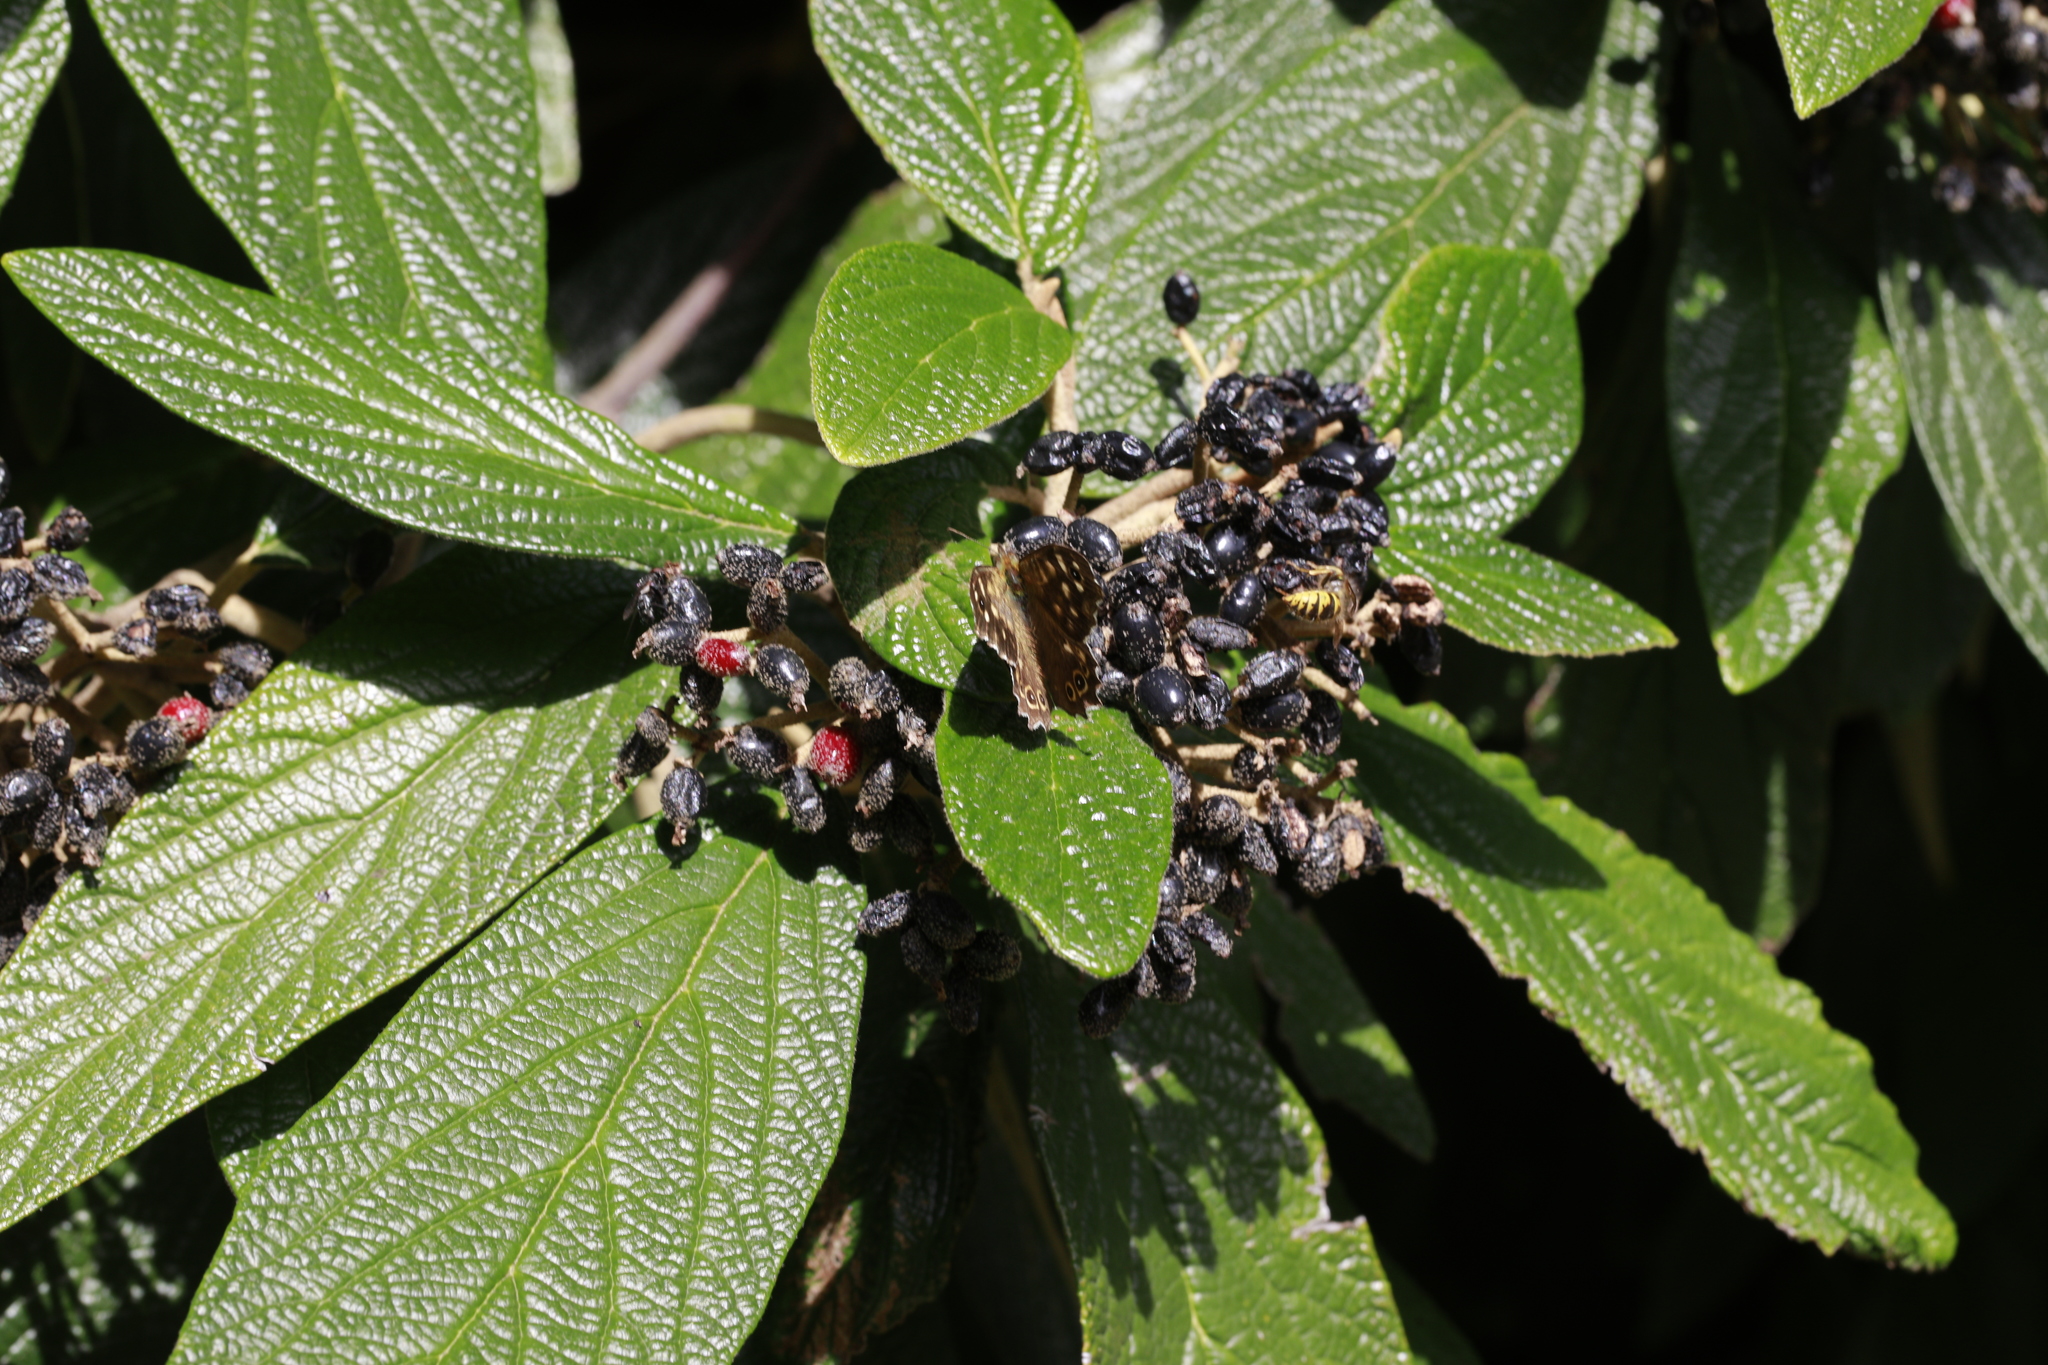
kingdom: Animalia
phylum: Arthropoda
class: Insecta
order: Lepidoptera
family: Nymphalidae
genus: Pararge
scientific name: Pararge aegeria
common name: Speckled wood
